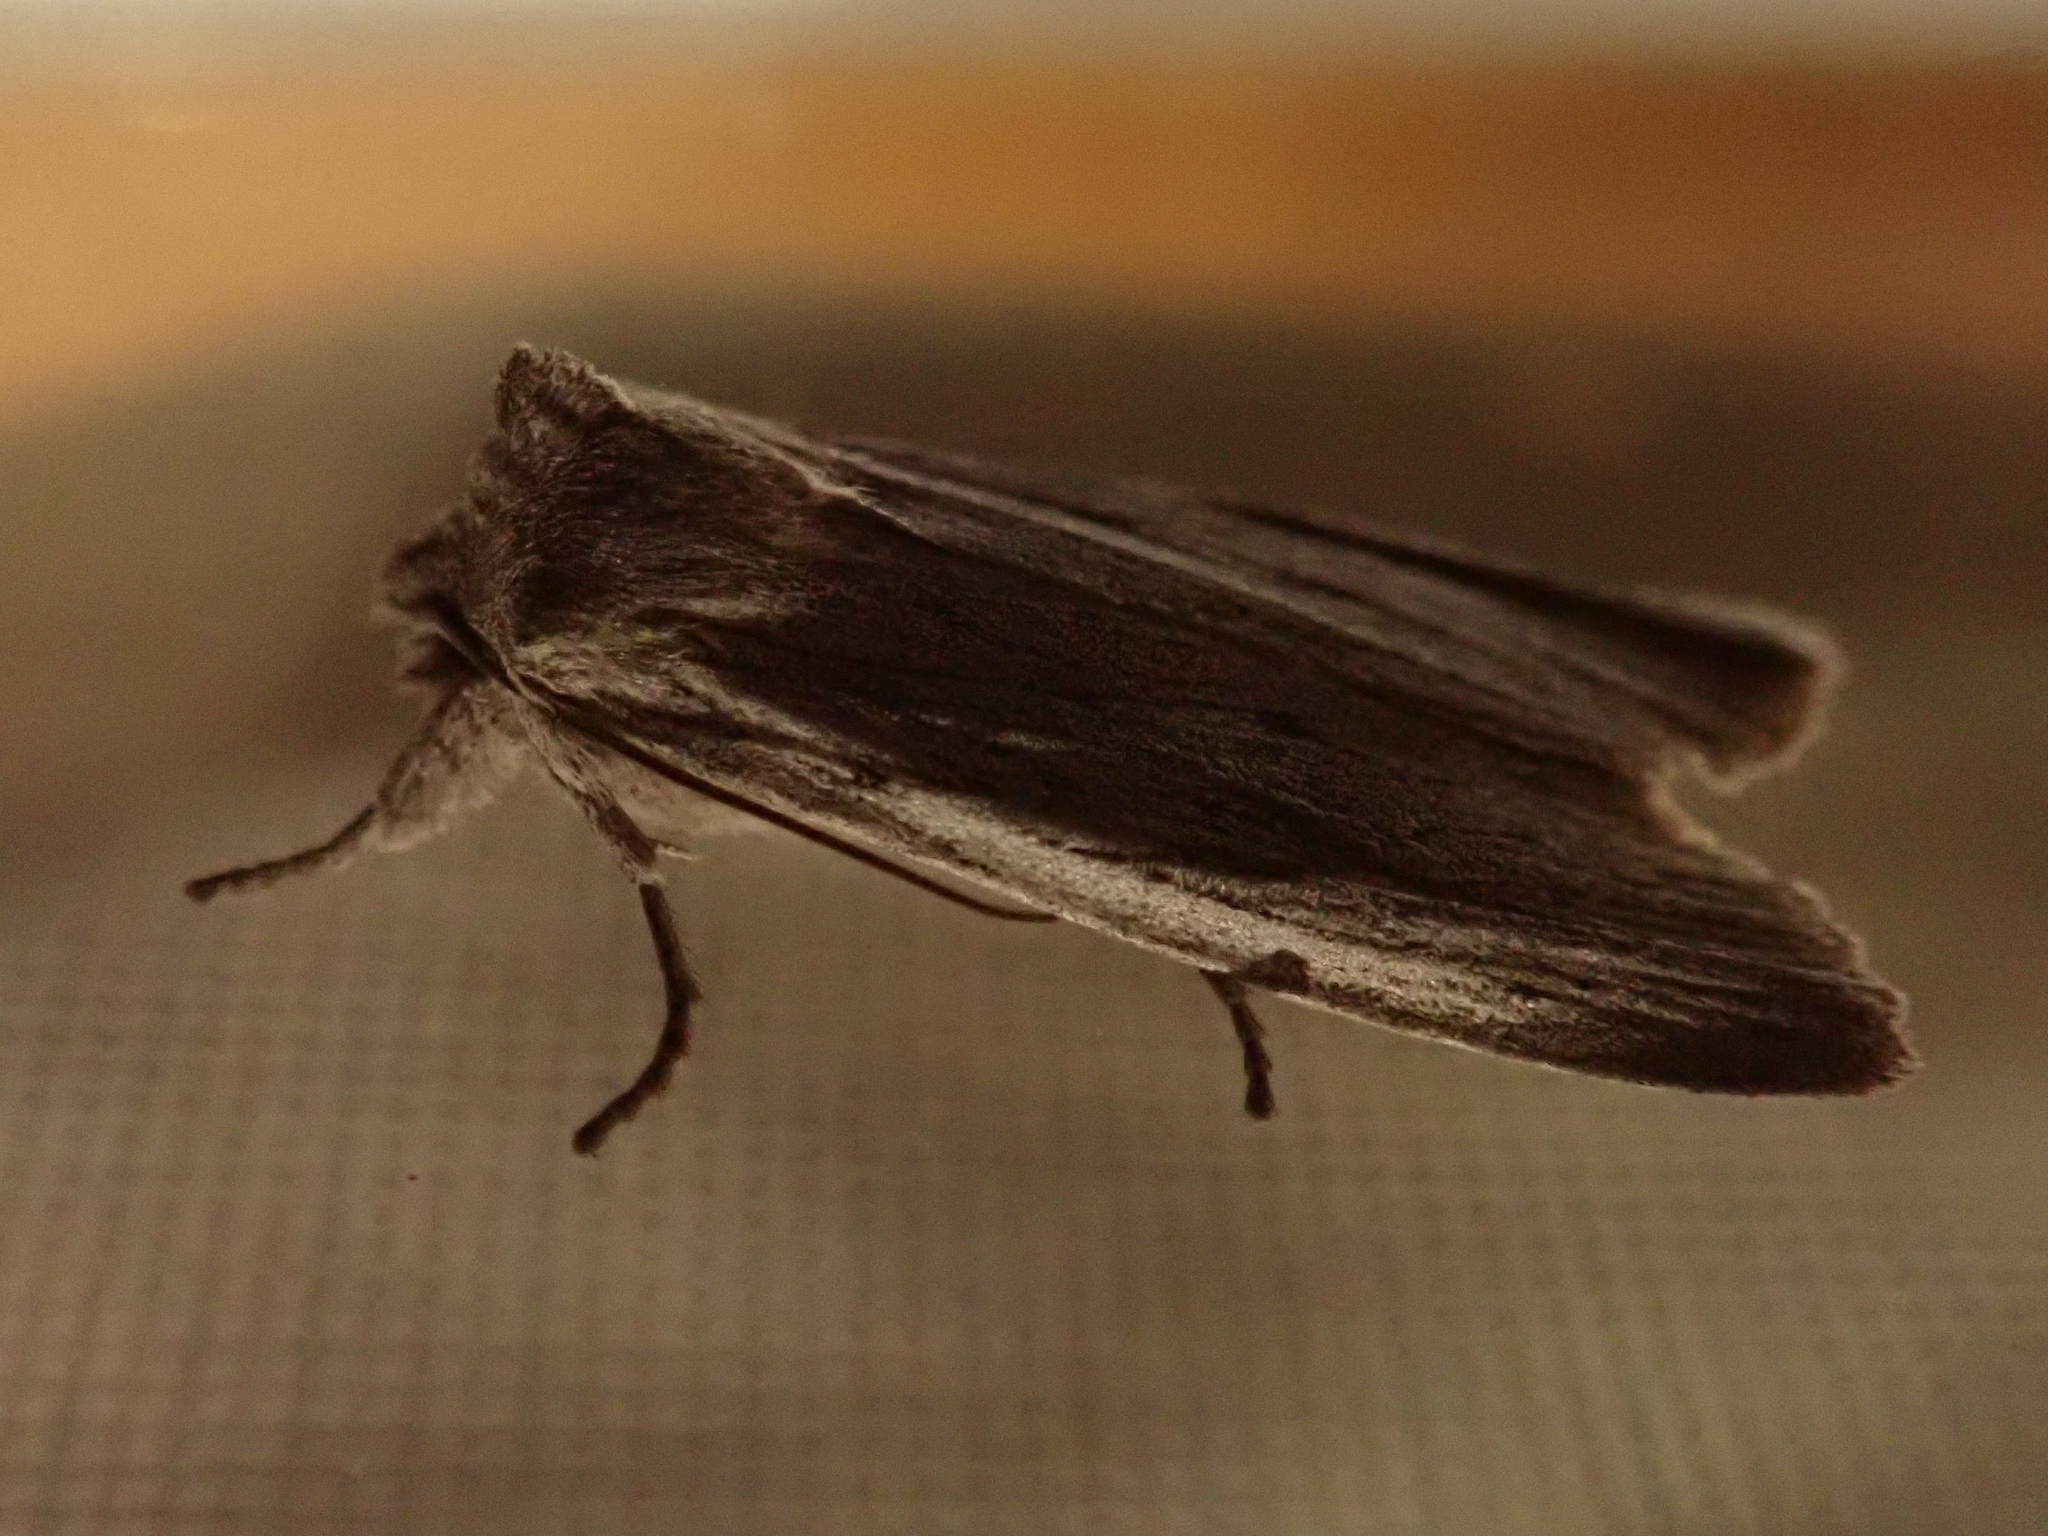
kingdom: Animalia
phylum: Arthropoda
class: Insecta
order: Lepidoptera
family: Noctuidae
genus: Lithophane
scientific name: Lithophane fagina
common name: Hoary pinion moth
